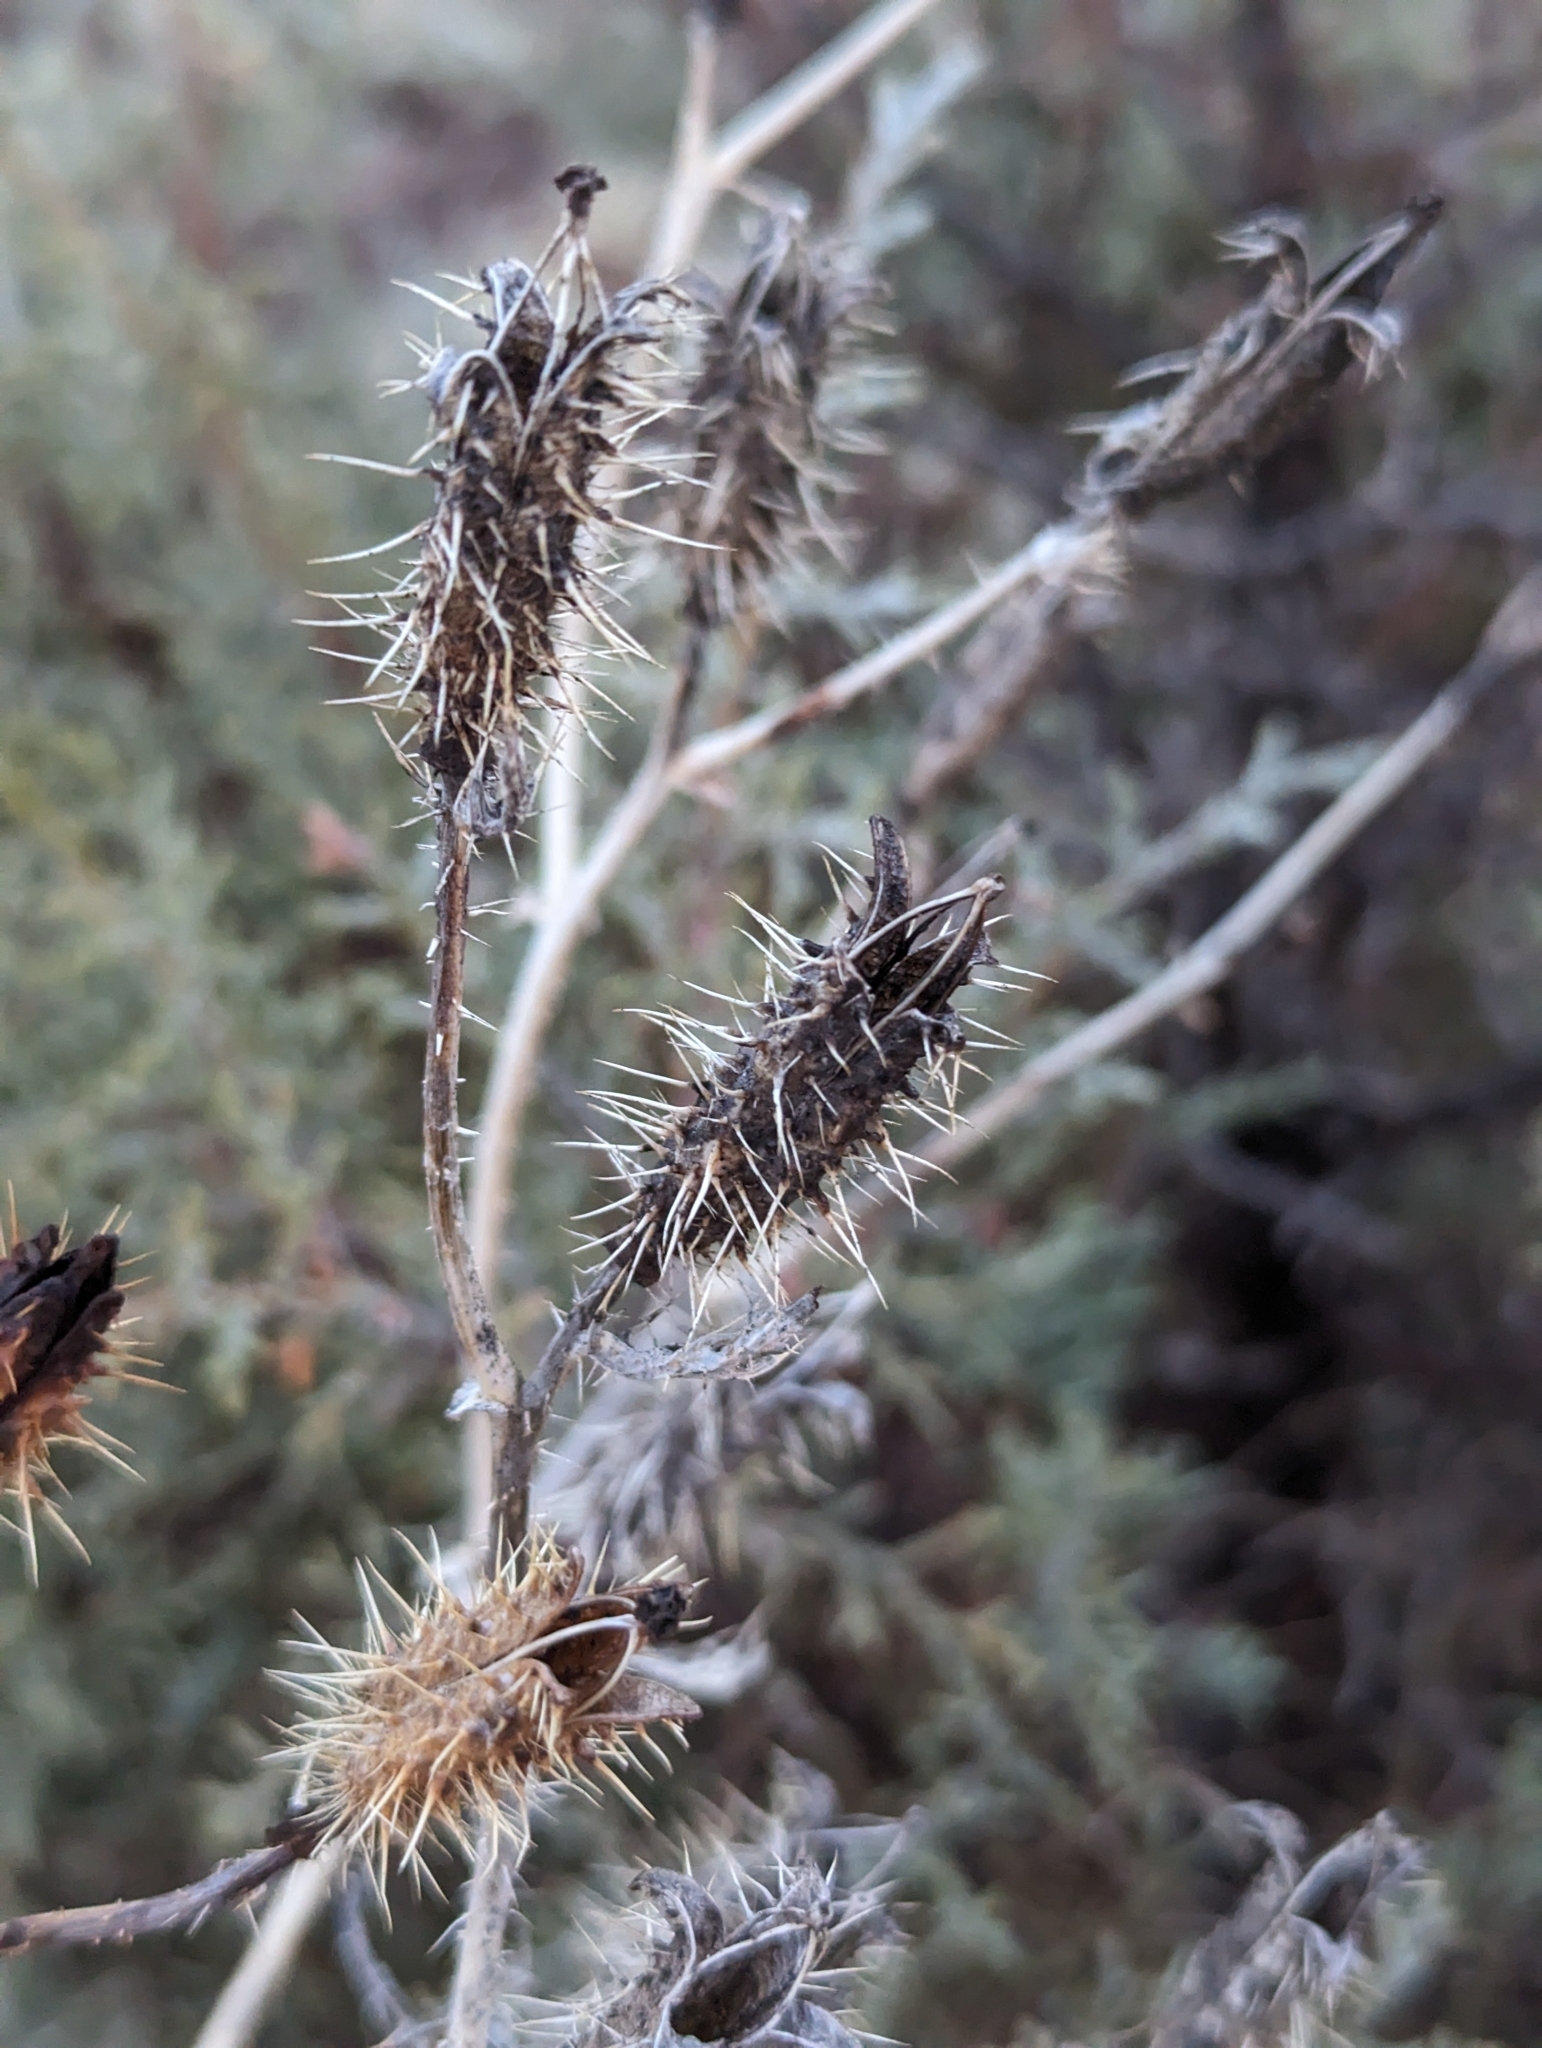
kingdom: Plantae
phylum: Tracheophyta
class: Magnoliopsida
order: Ranunculales
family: Papaveraceae
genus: Argemone
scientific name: Argemone pleiacantha
